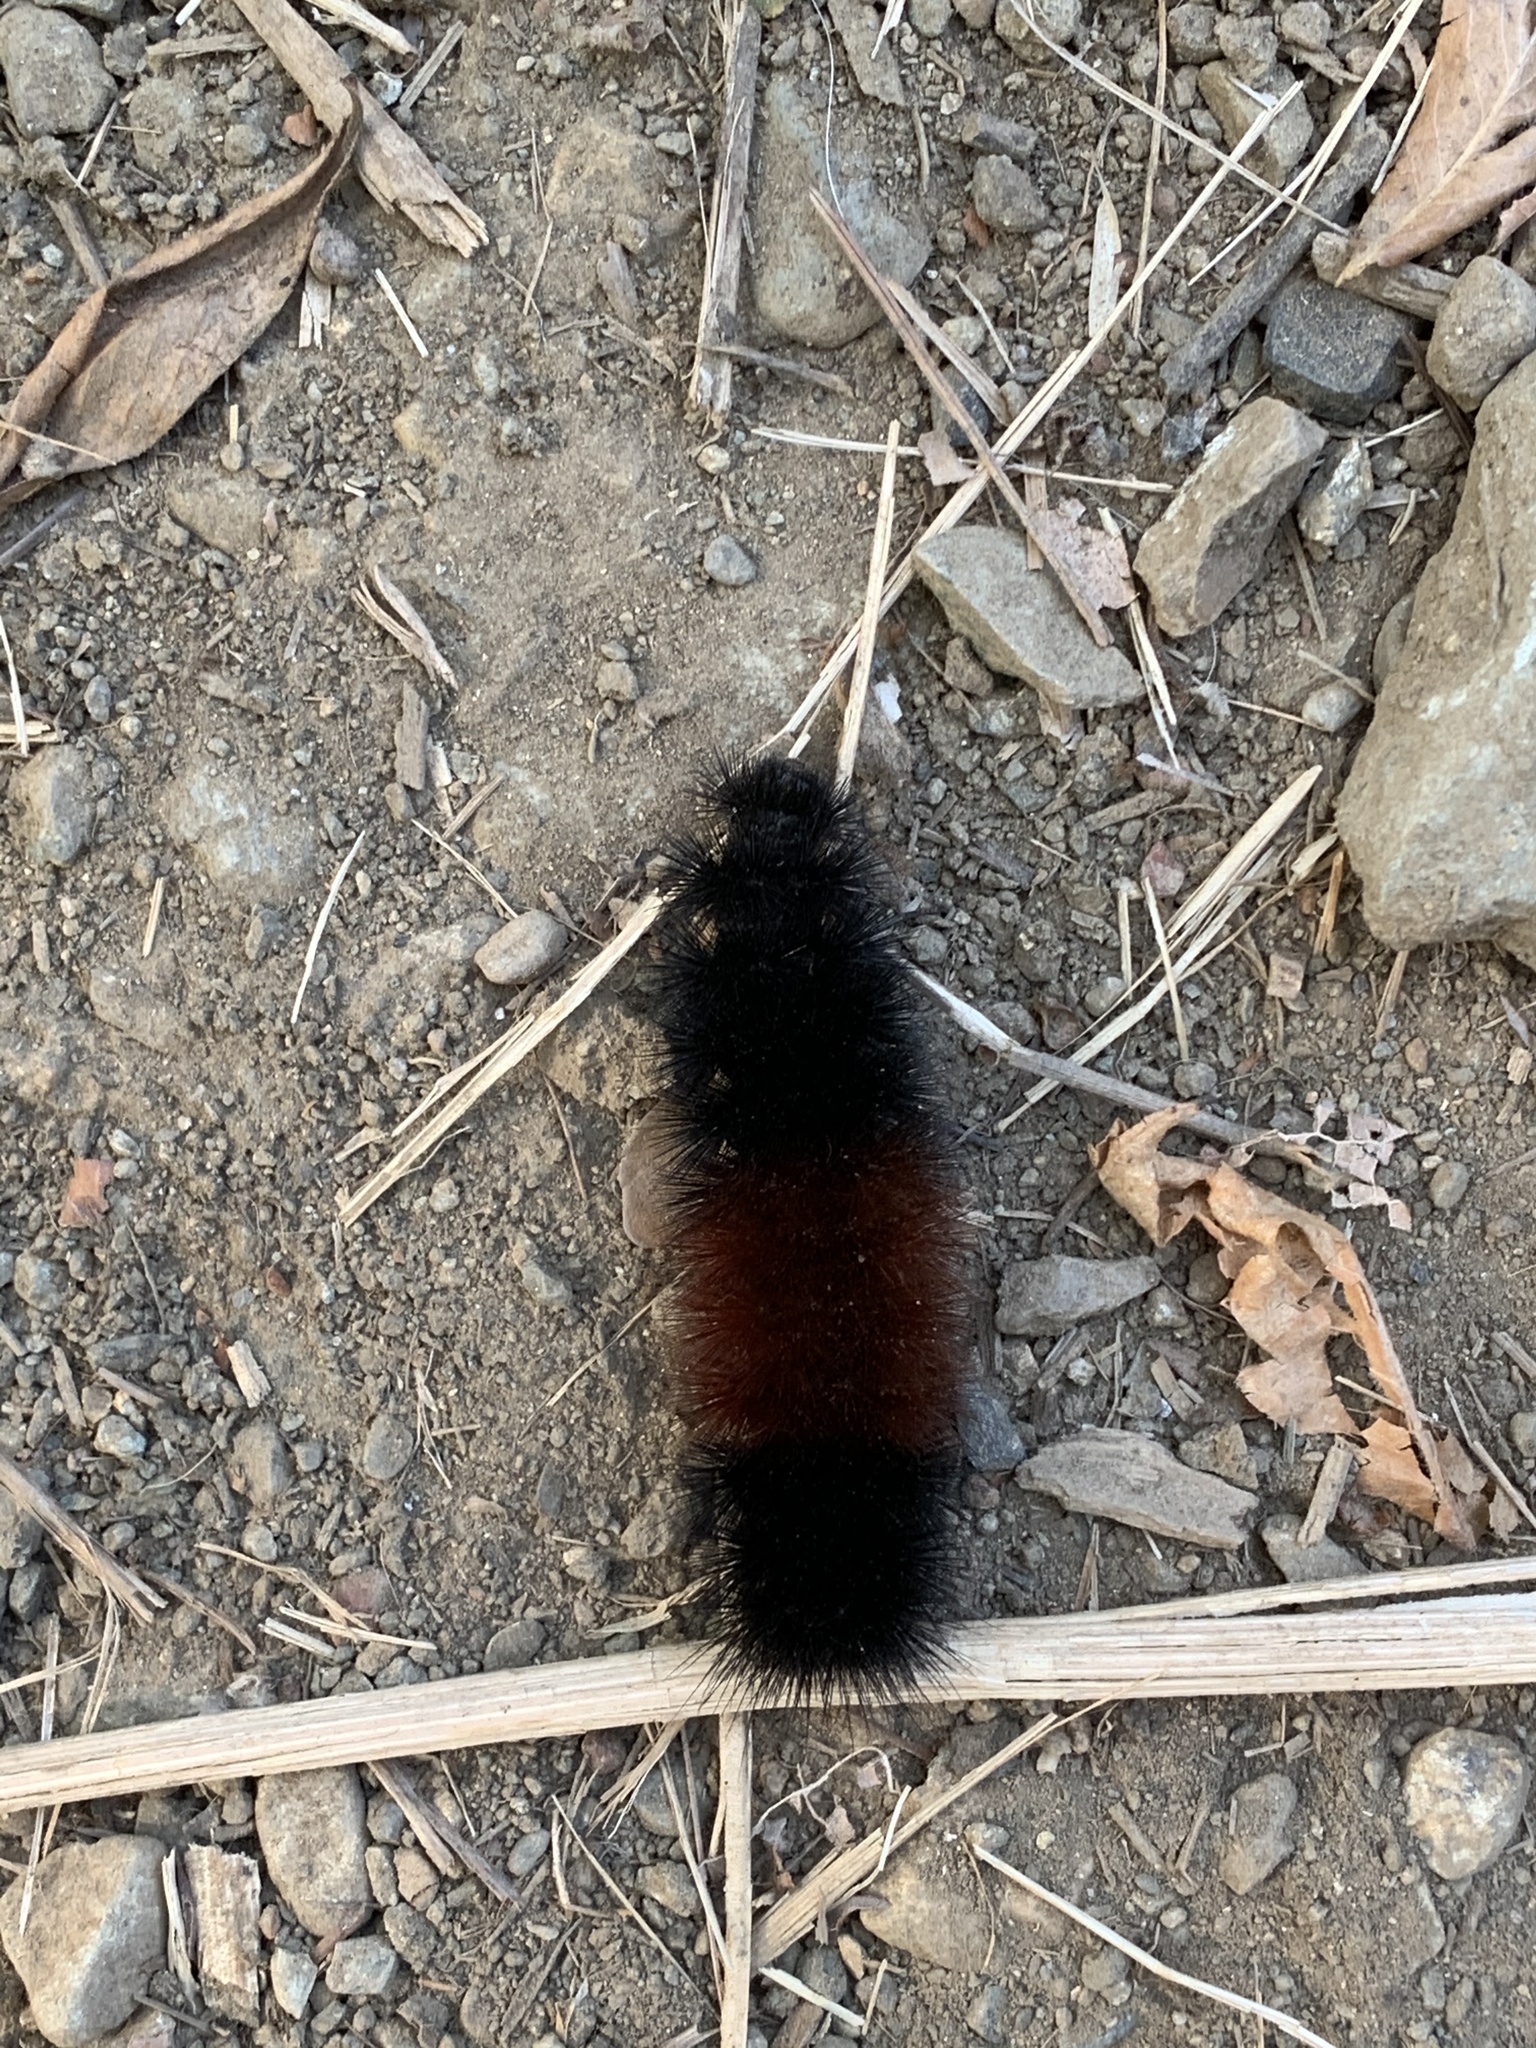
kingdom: Animalia
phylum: Arthropoda
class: Insecta
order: Lepidoptera
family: Erebidae
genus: Pyrrharctia
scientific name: Pyrrharctia isabella
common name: Isabella tiger moth
